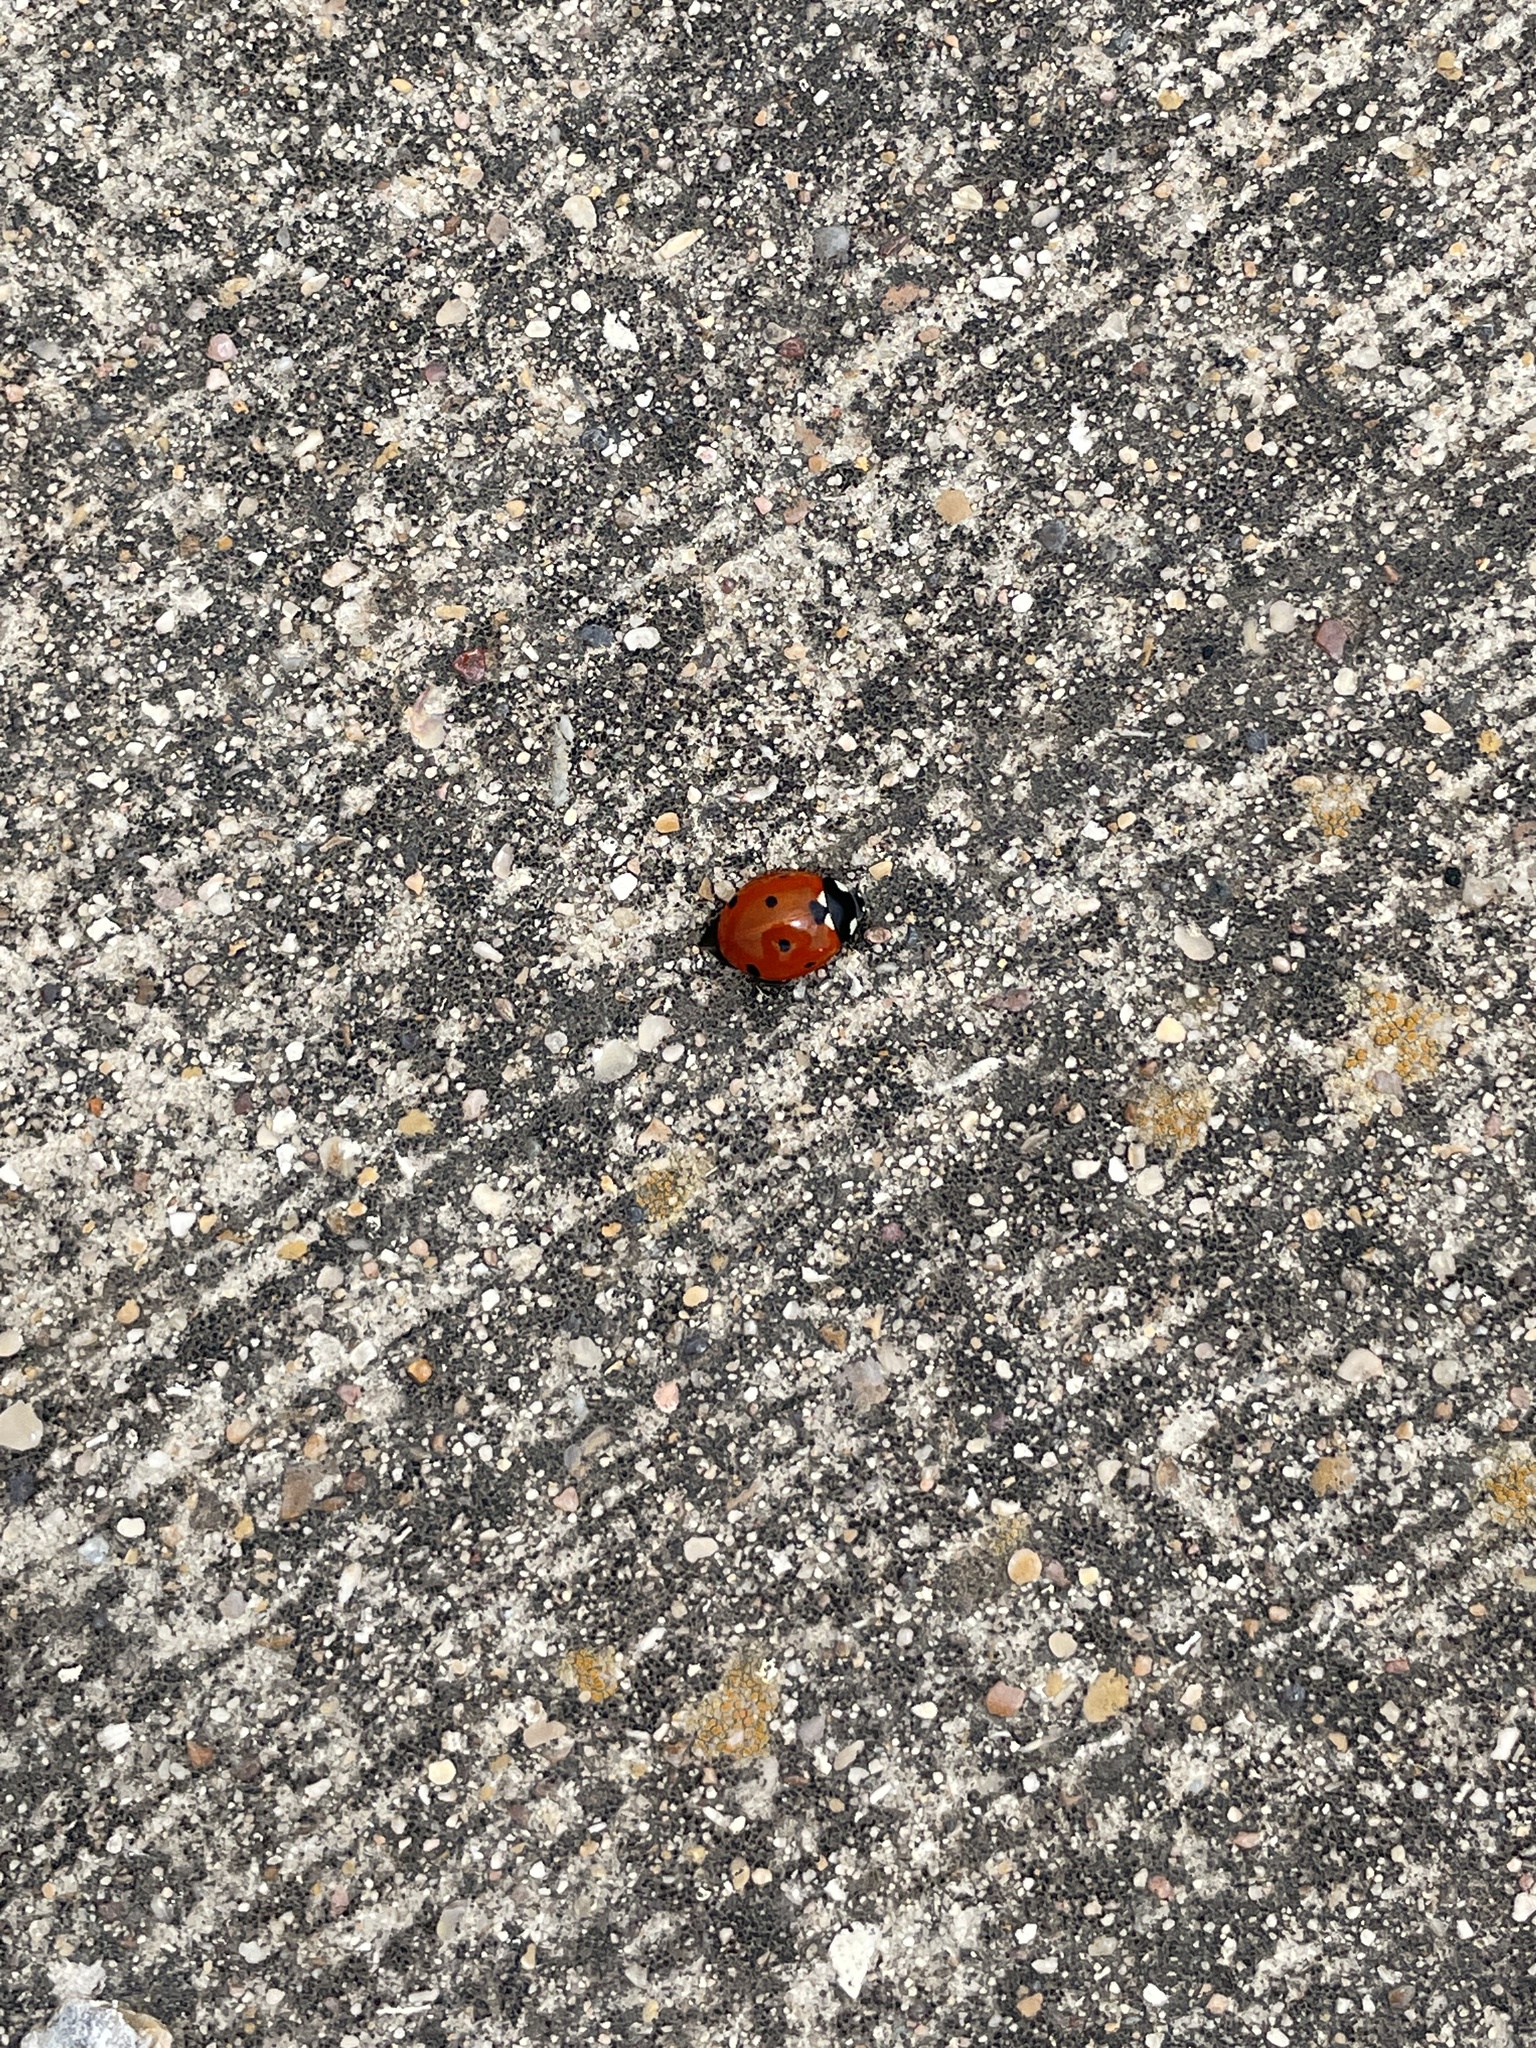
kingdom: Animalia
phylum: Arthropoda
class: Insecta
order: Coleoptera
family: Coccinellidae
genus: Coccinella
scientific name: Coccinella septempunctata
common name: Sevenspotted lady beetle
